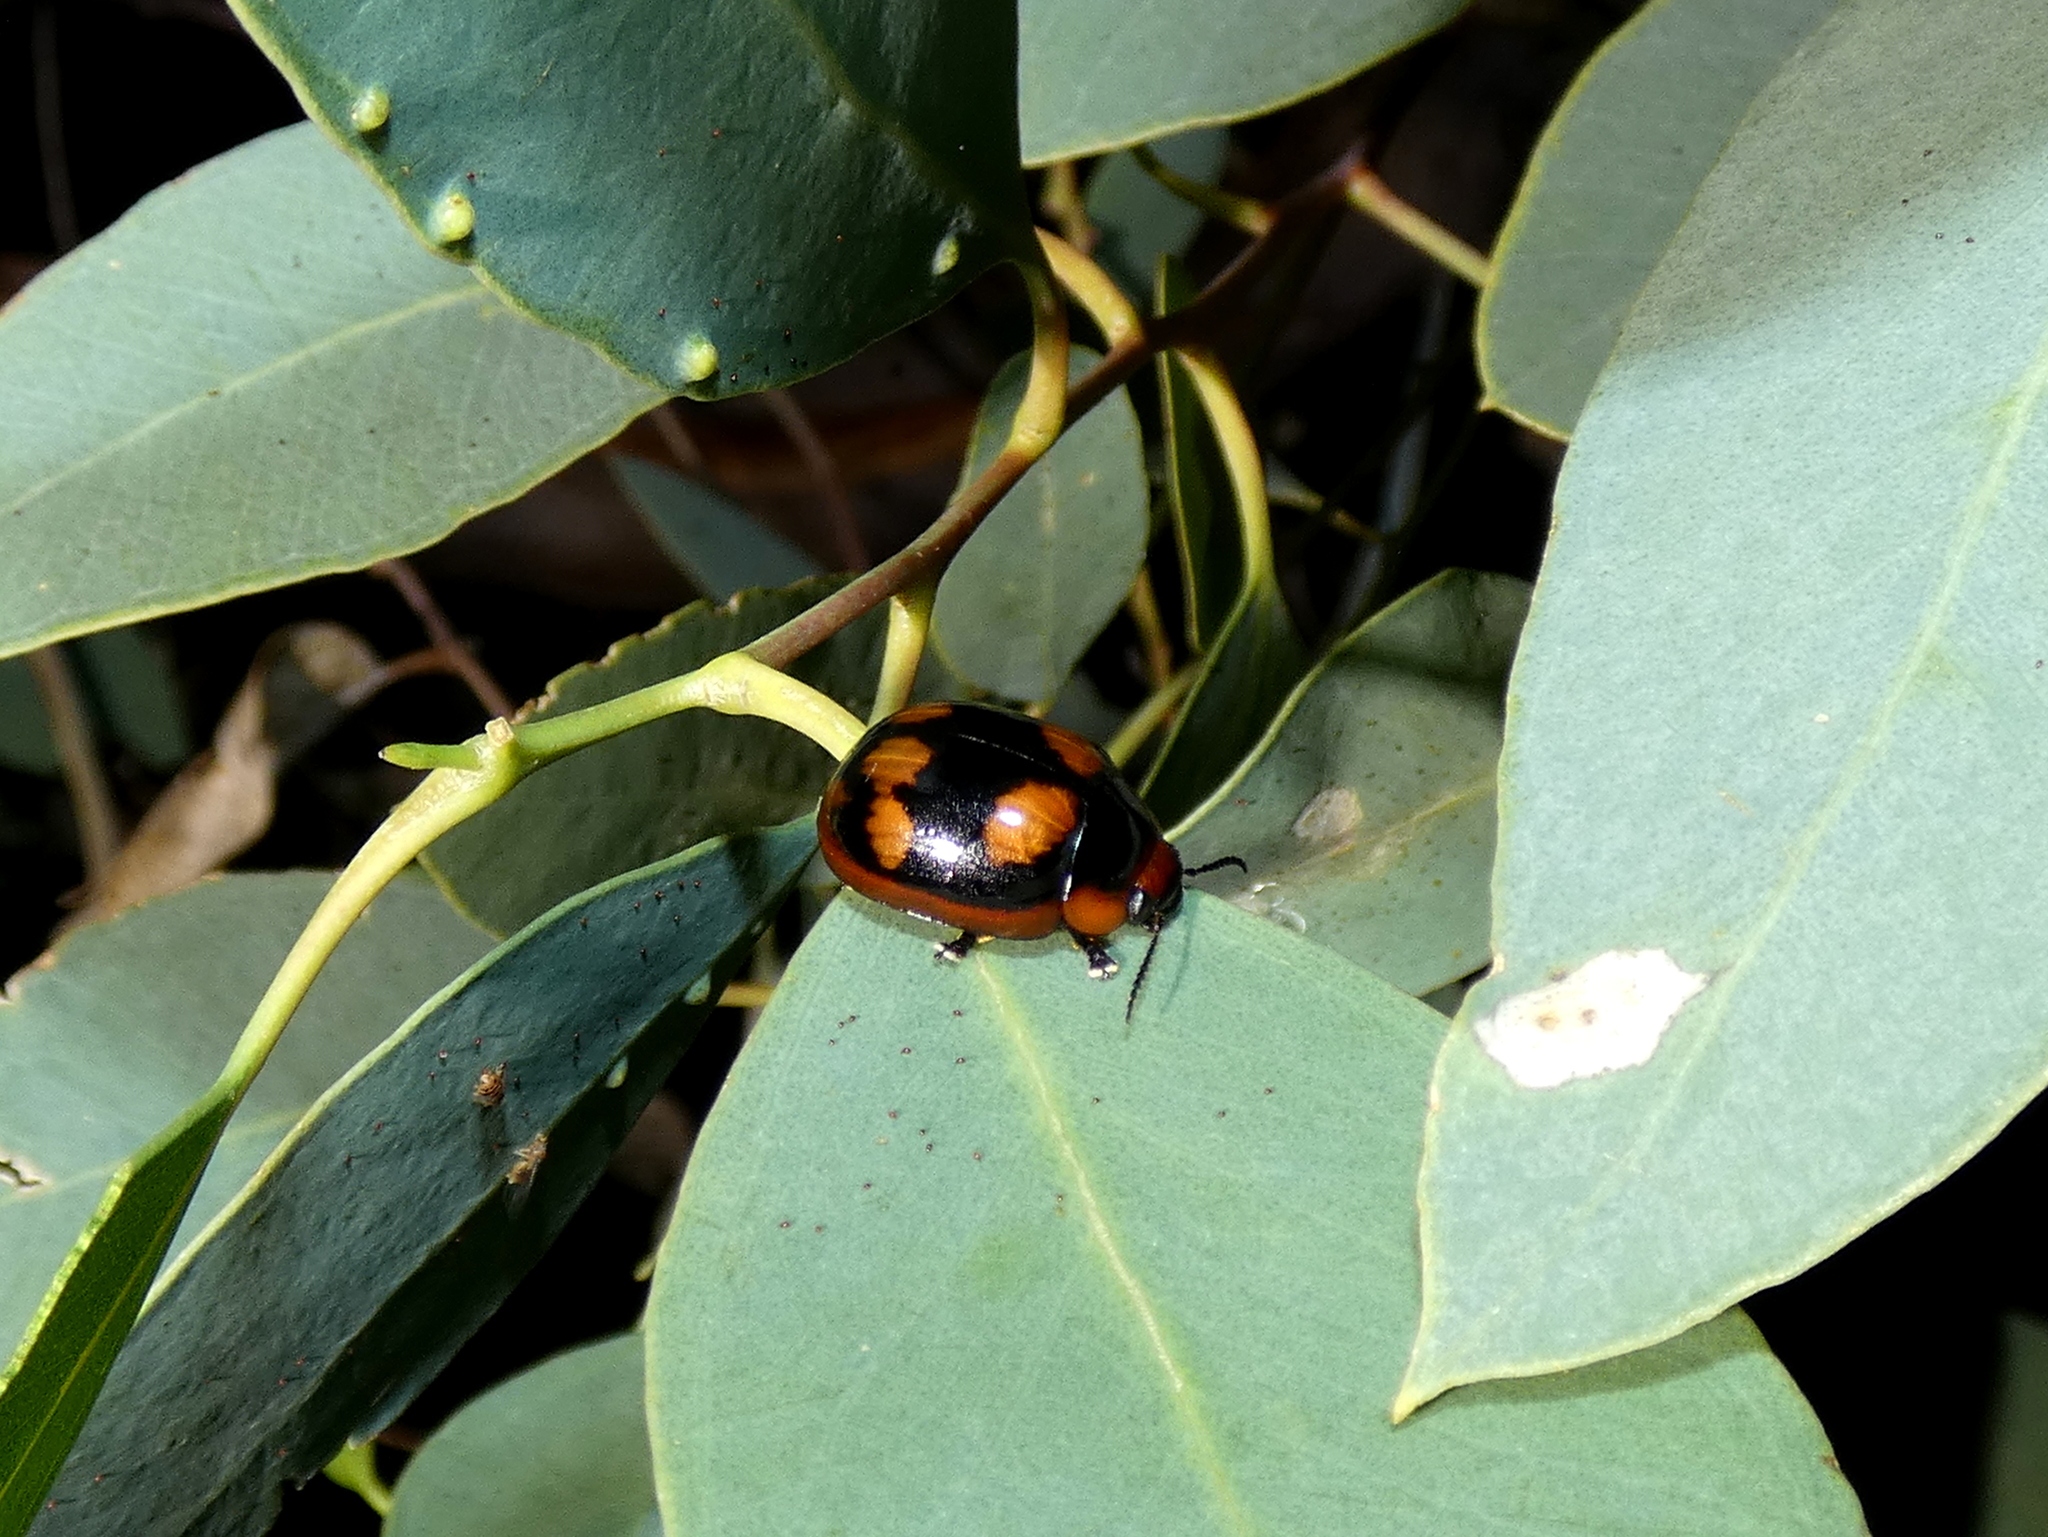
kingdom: Animalia
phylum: Arthropoda
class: Insecta
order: Coleoptera
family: Chrysomelidae
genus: Paropsisterna
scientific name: Paropsisterna beata
